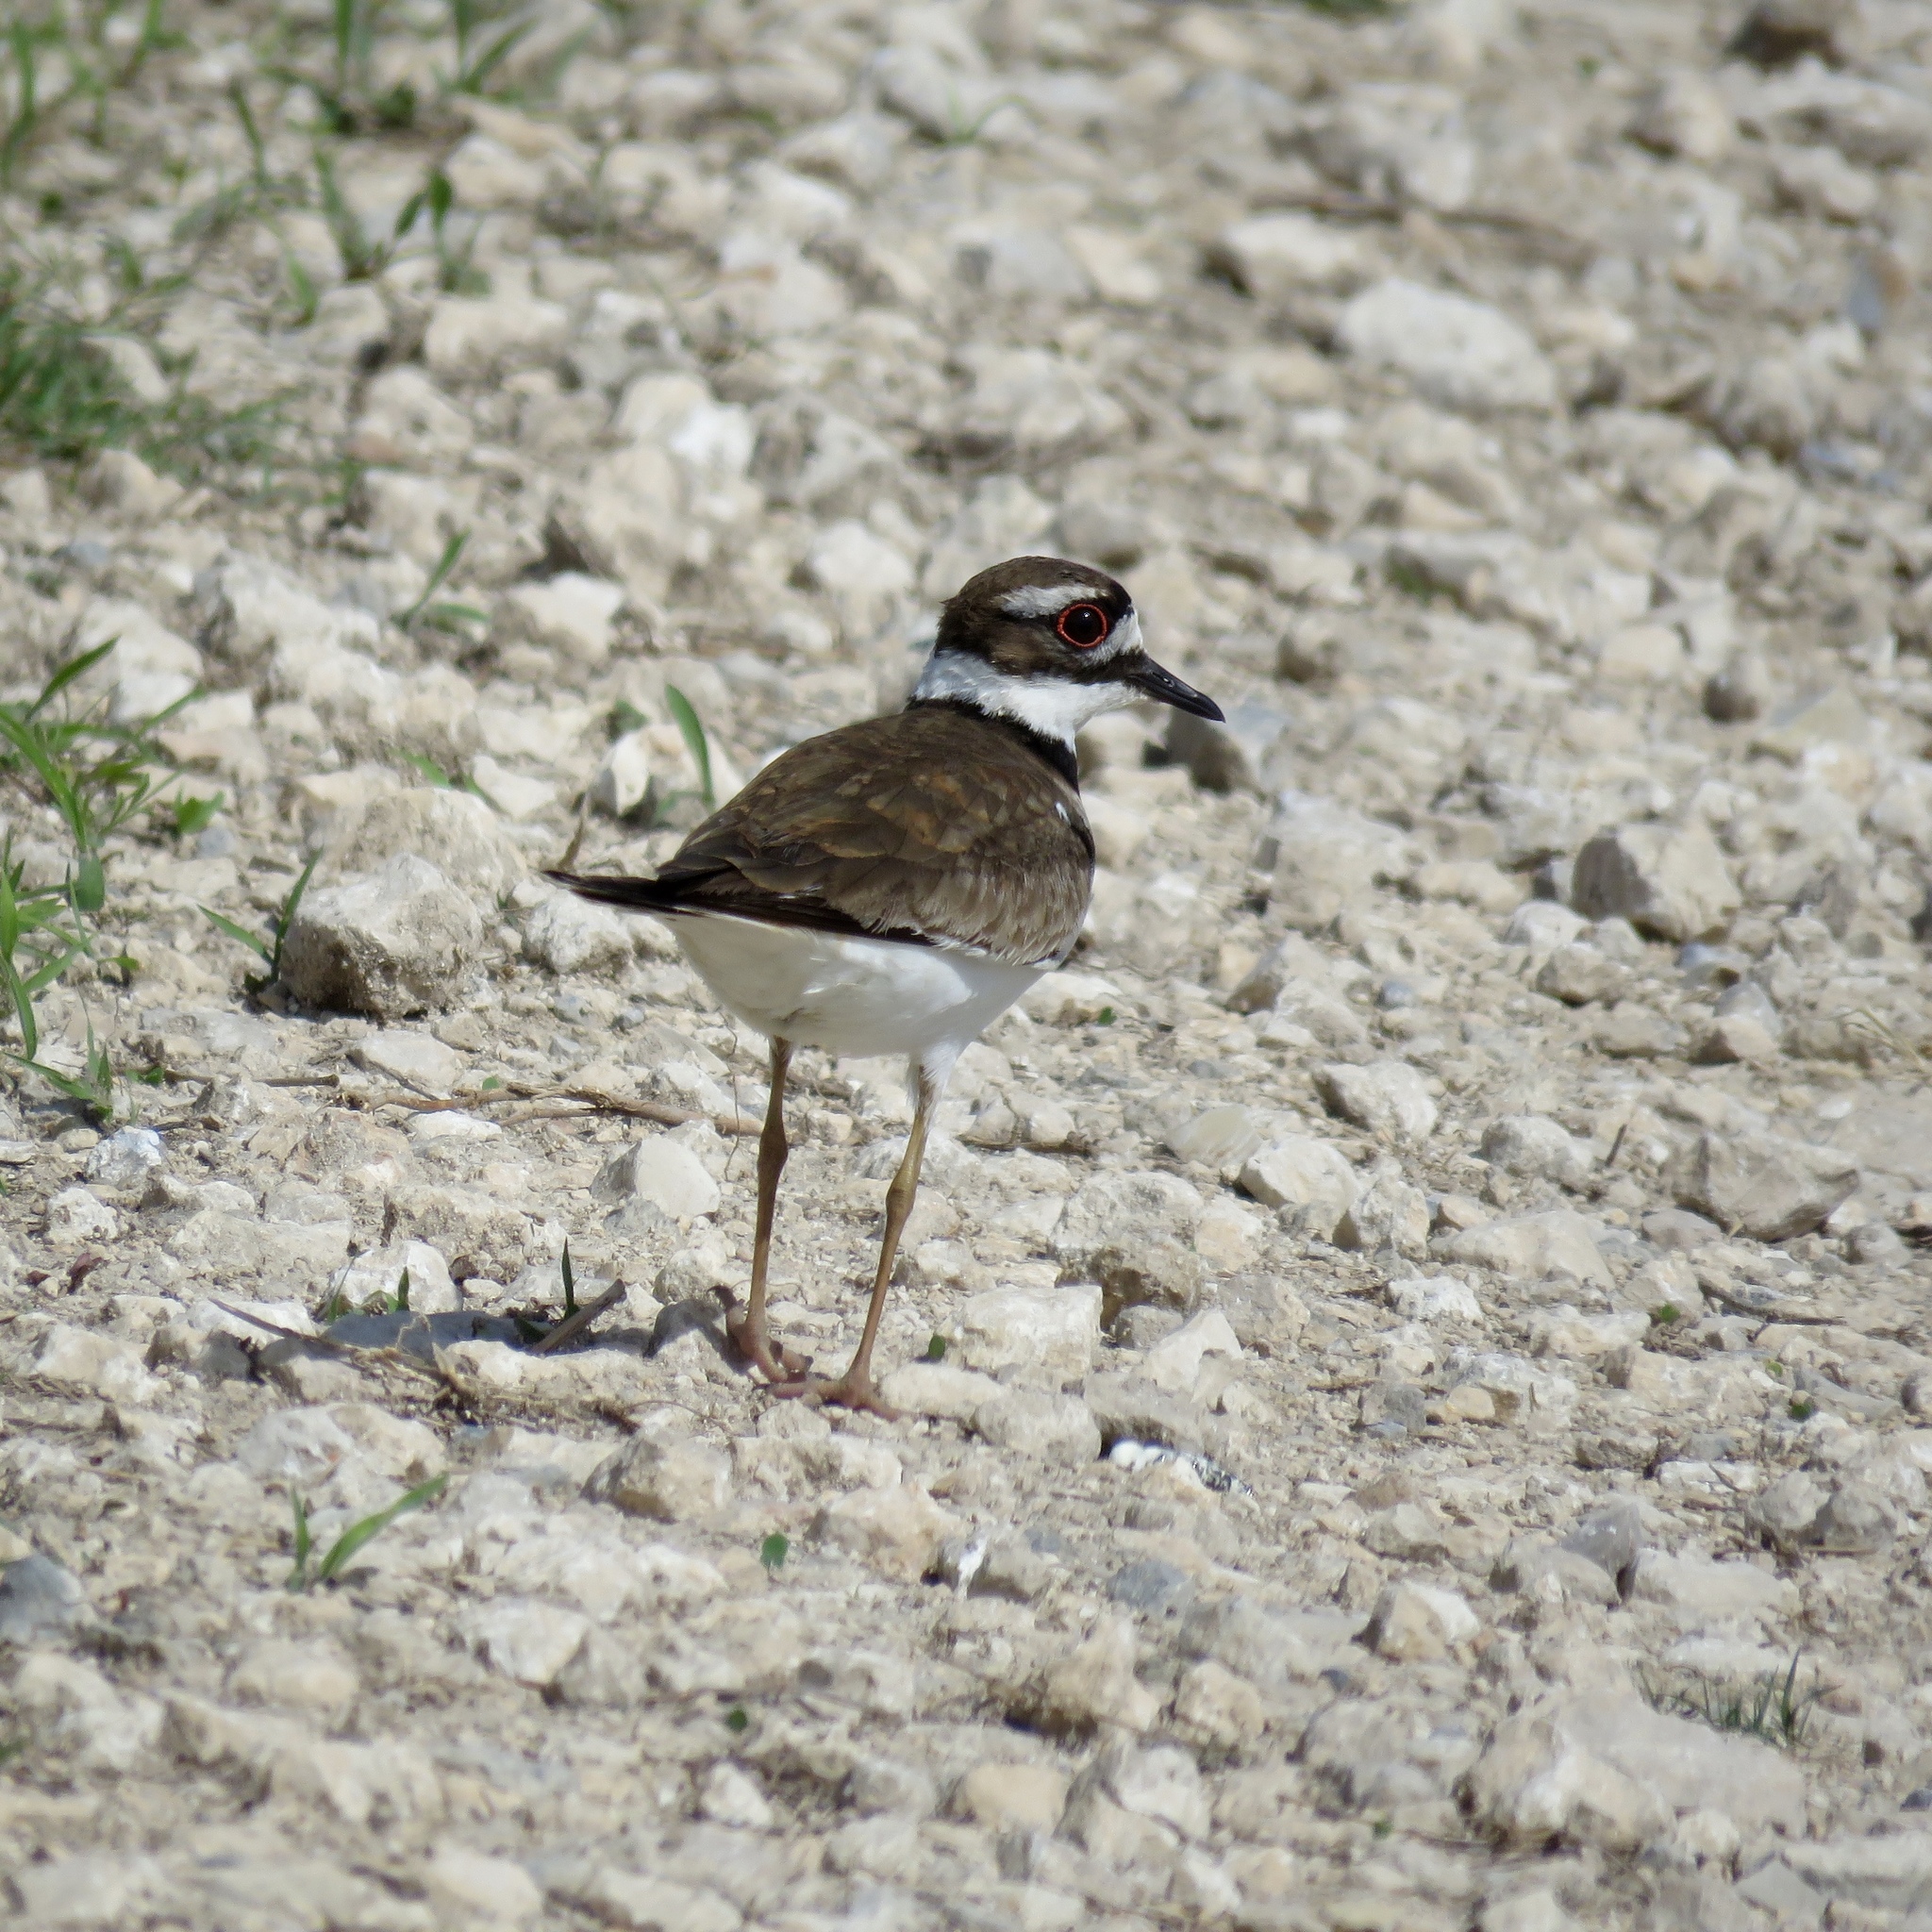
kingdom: Animalia
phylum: Chordata
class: Aves
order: Charadriiformes
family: Charadriidae
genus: Charadrius
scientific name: Charadrius vociferus
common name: Killdeer
